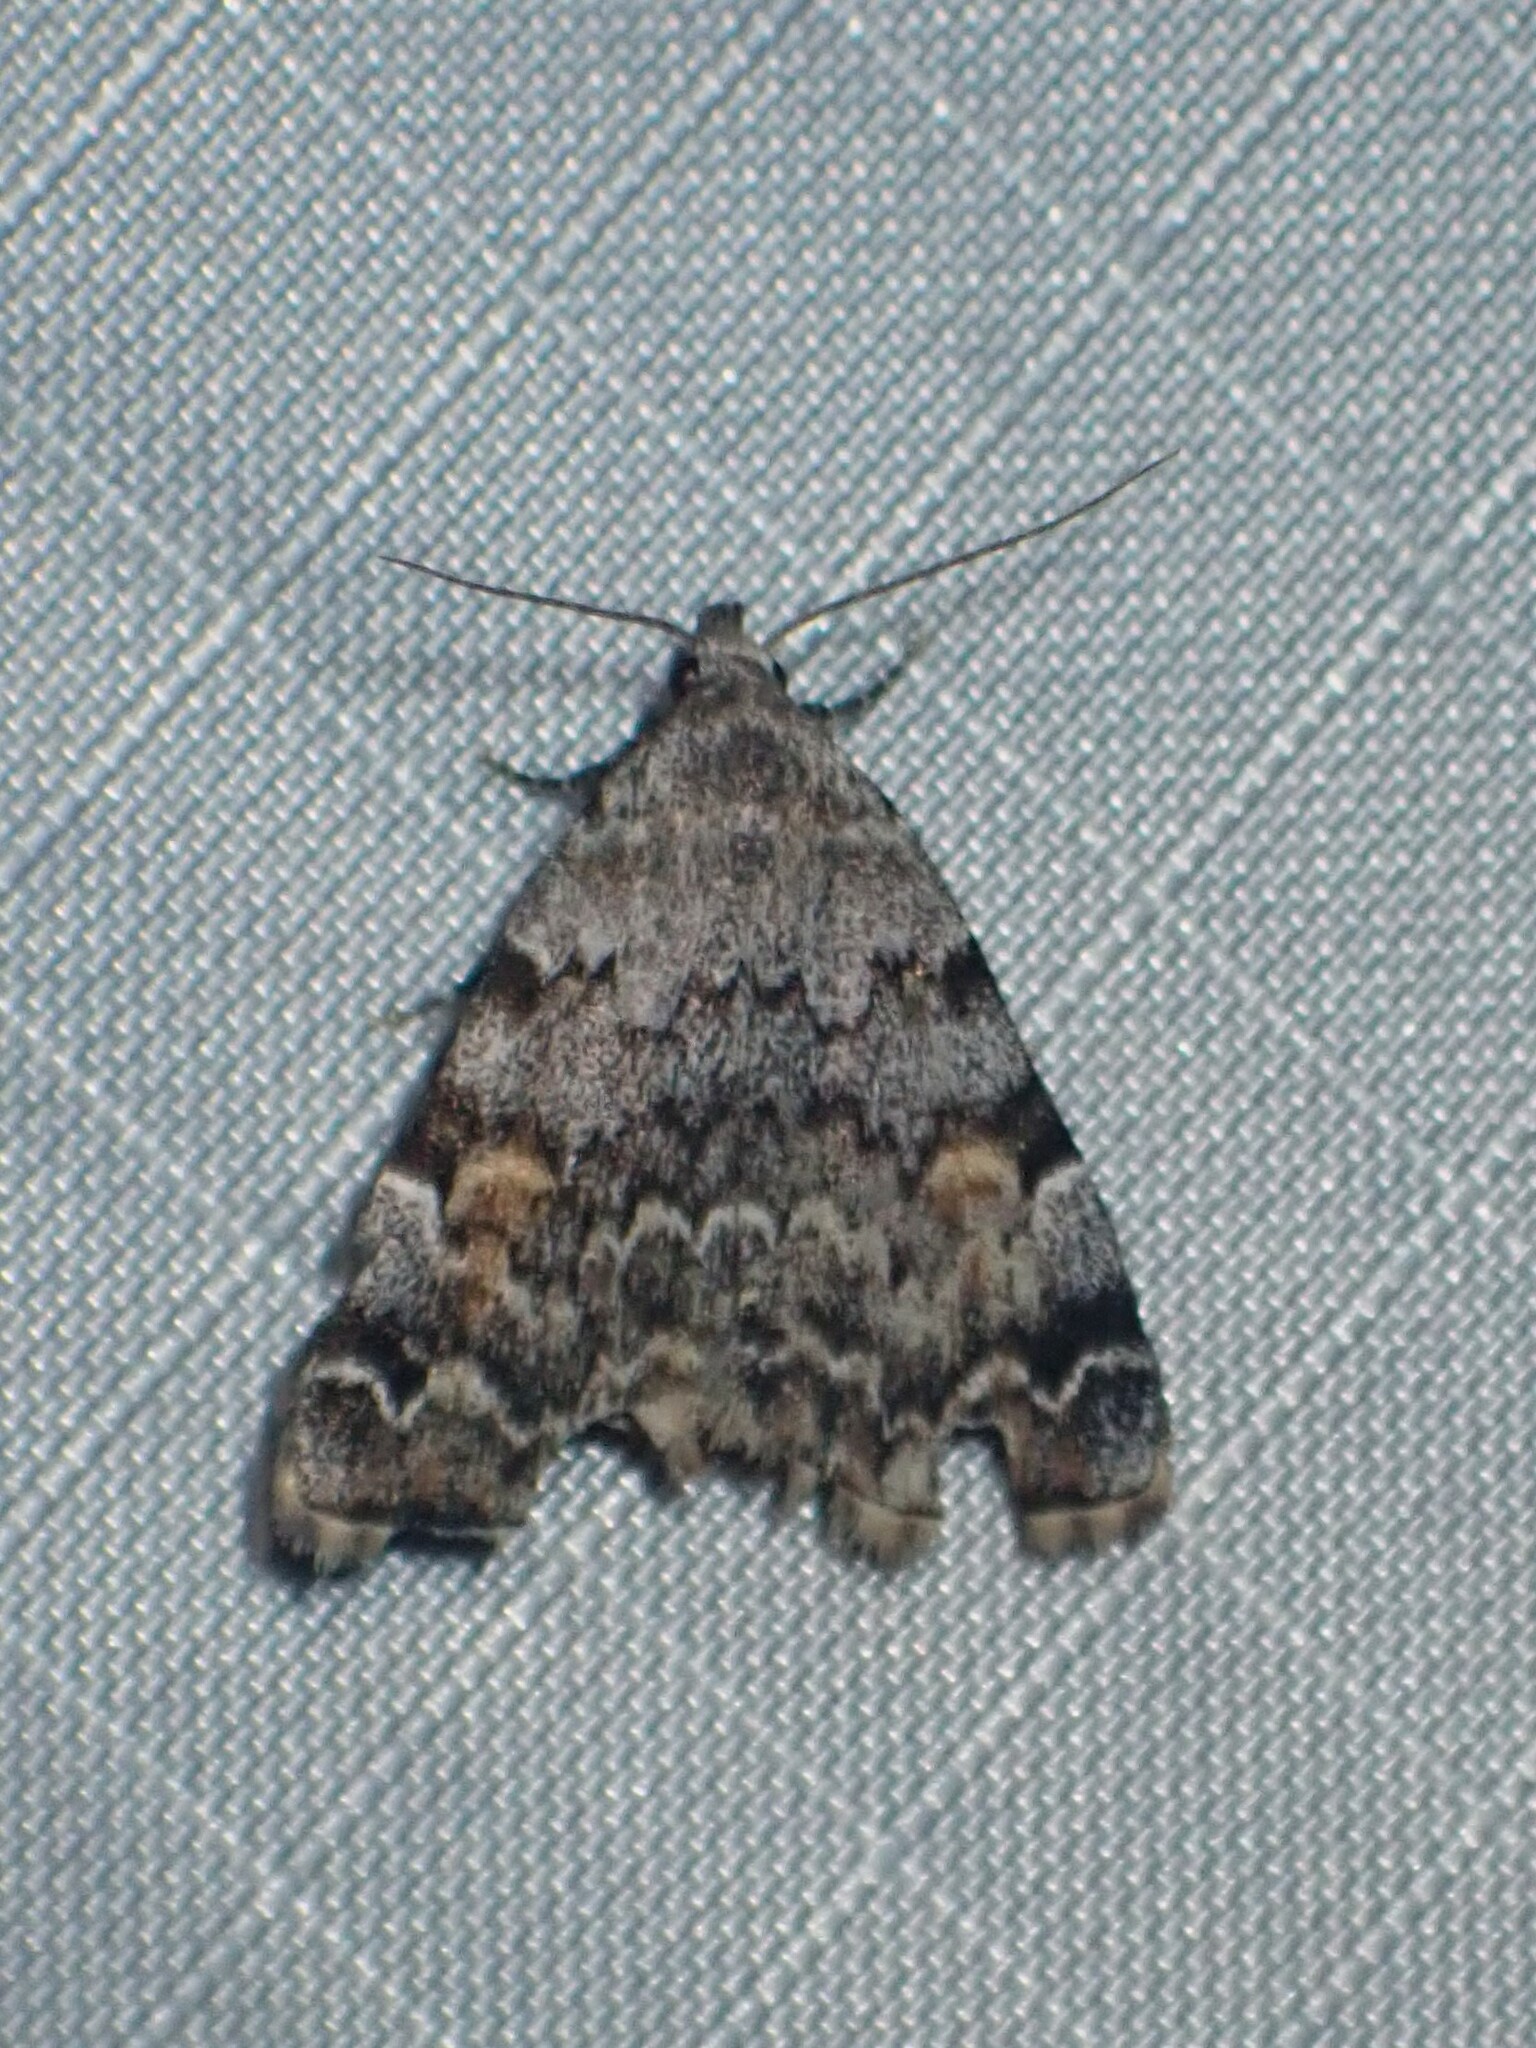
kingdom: Animalia
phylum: Arthropoda
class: Insecta
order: Lepidoptera
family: Erebidae
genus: Idia
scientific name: Idia americalis
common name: American idia moth
